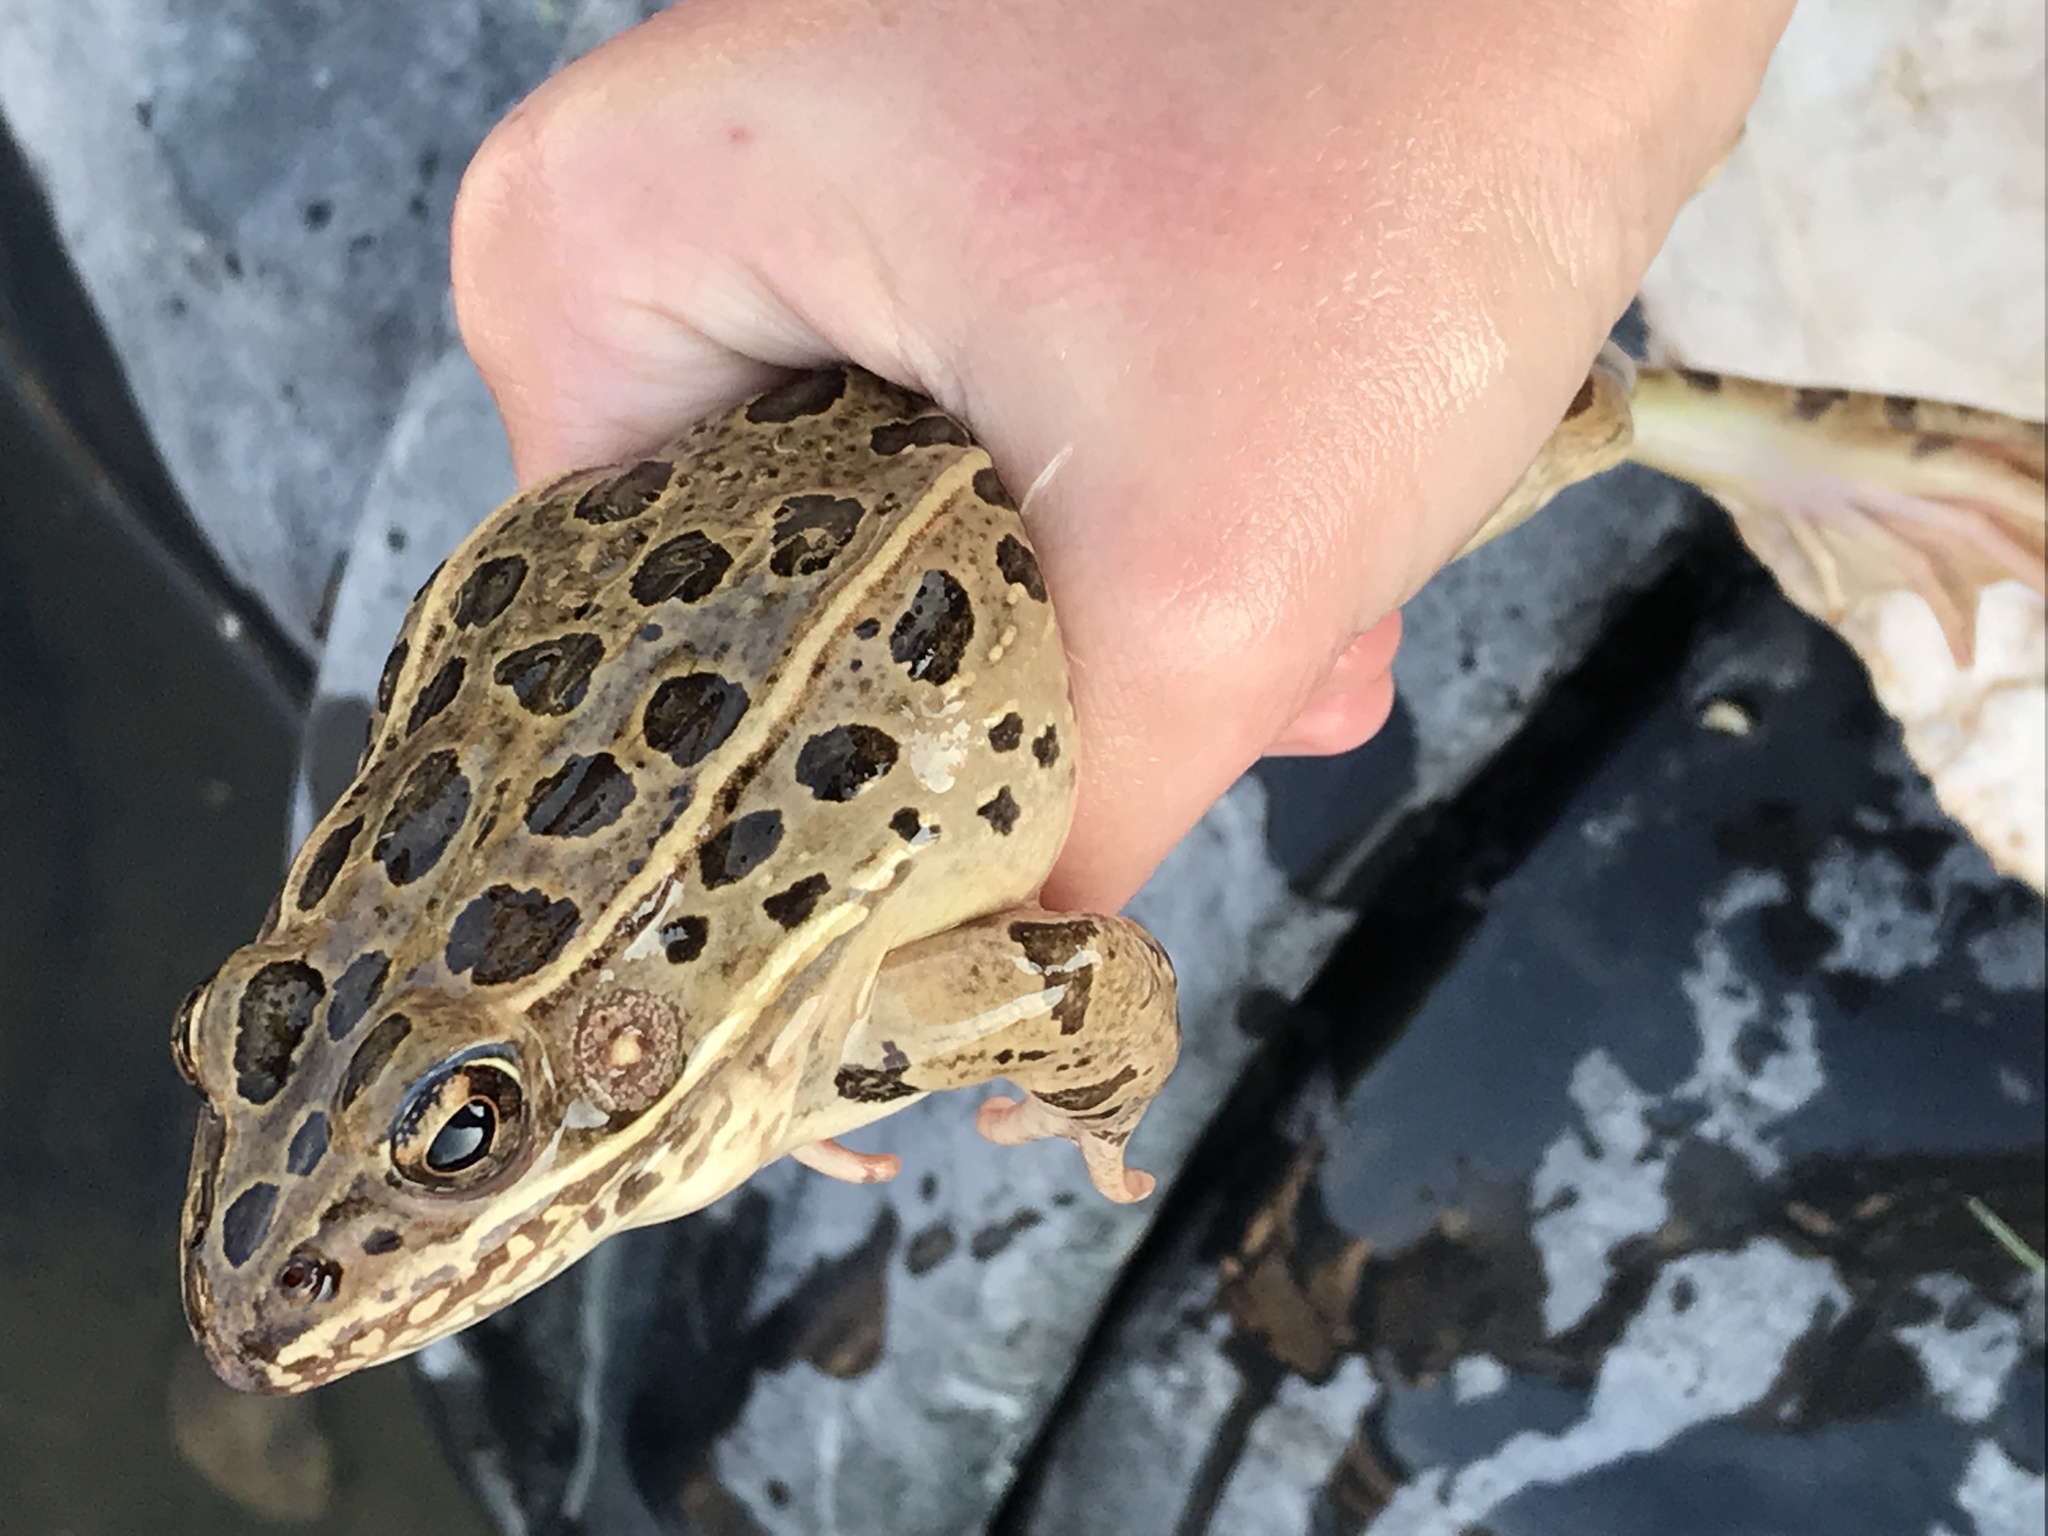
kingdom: Animalia
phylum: Chordata
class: Amphibia
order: Anura
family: Ranidae
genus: Lithobates
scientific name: Lithobates blairi
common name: Plains leopard frog
